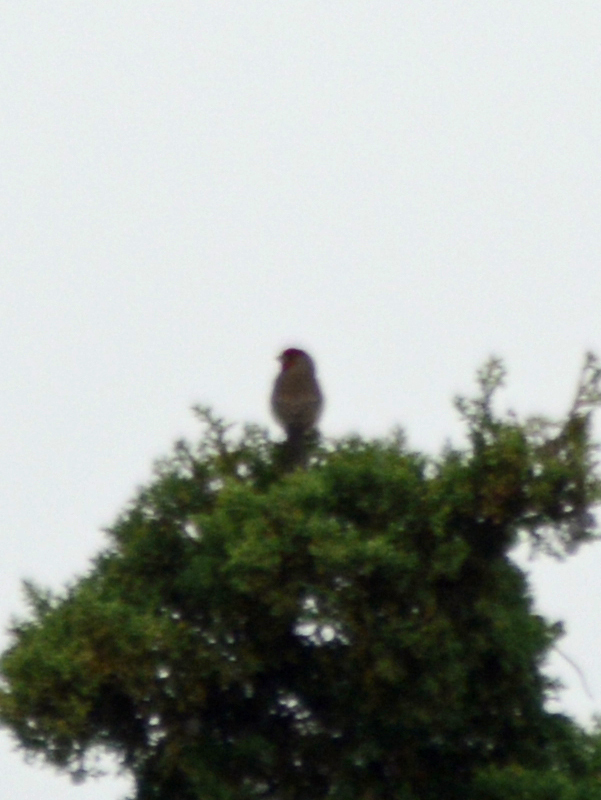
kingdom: Animalia
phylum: Chordata
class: Aves
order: Passeriformes
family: Fringillidae
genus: Haemorhous
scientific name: Haemorhous mexicanus
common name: House finch
